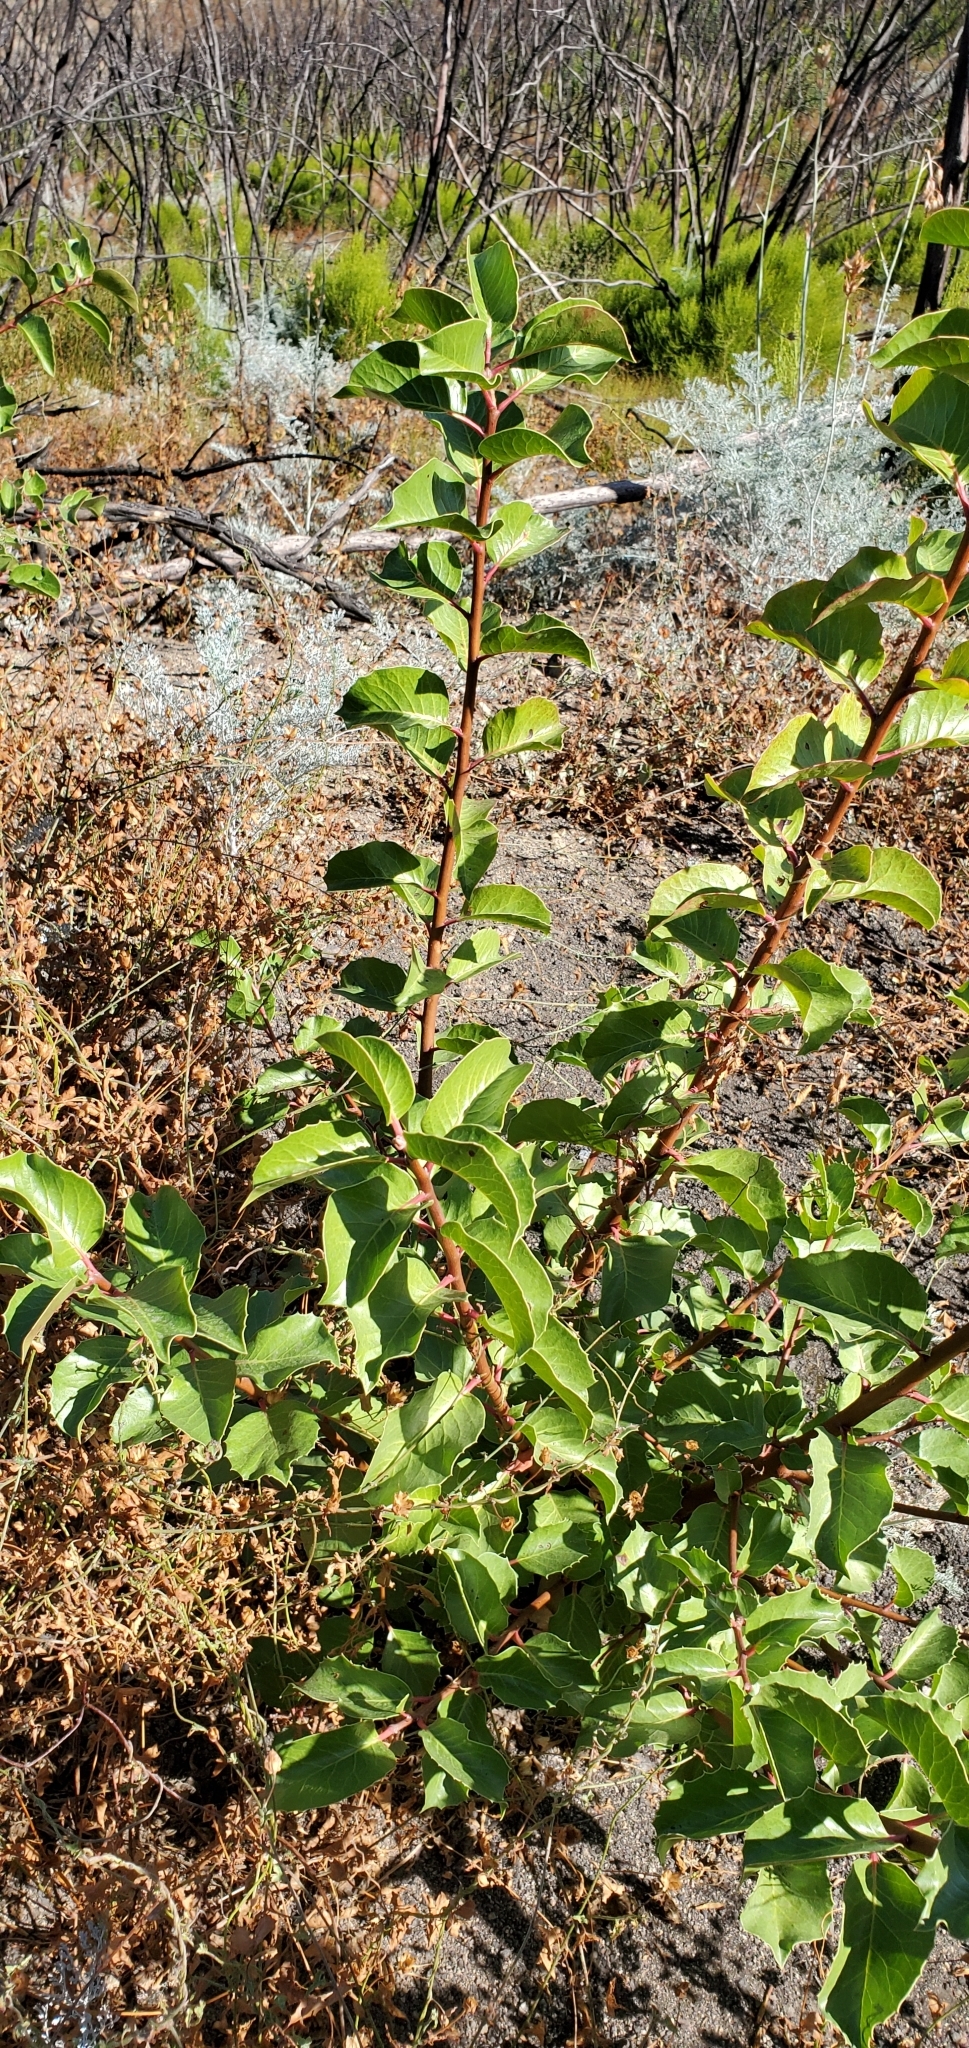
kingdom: Plantae
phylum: Tracheophyta
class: Magnoliopsida
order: Sapindales
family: Anacardiaceae
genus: Rhus
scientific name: Rhus ovata
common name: Sugar sumac
